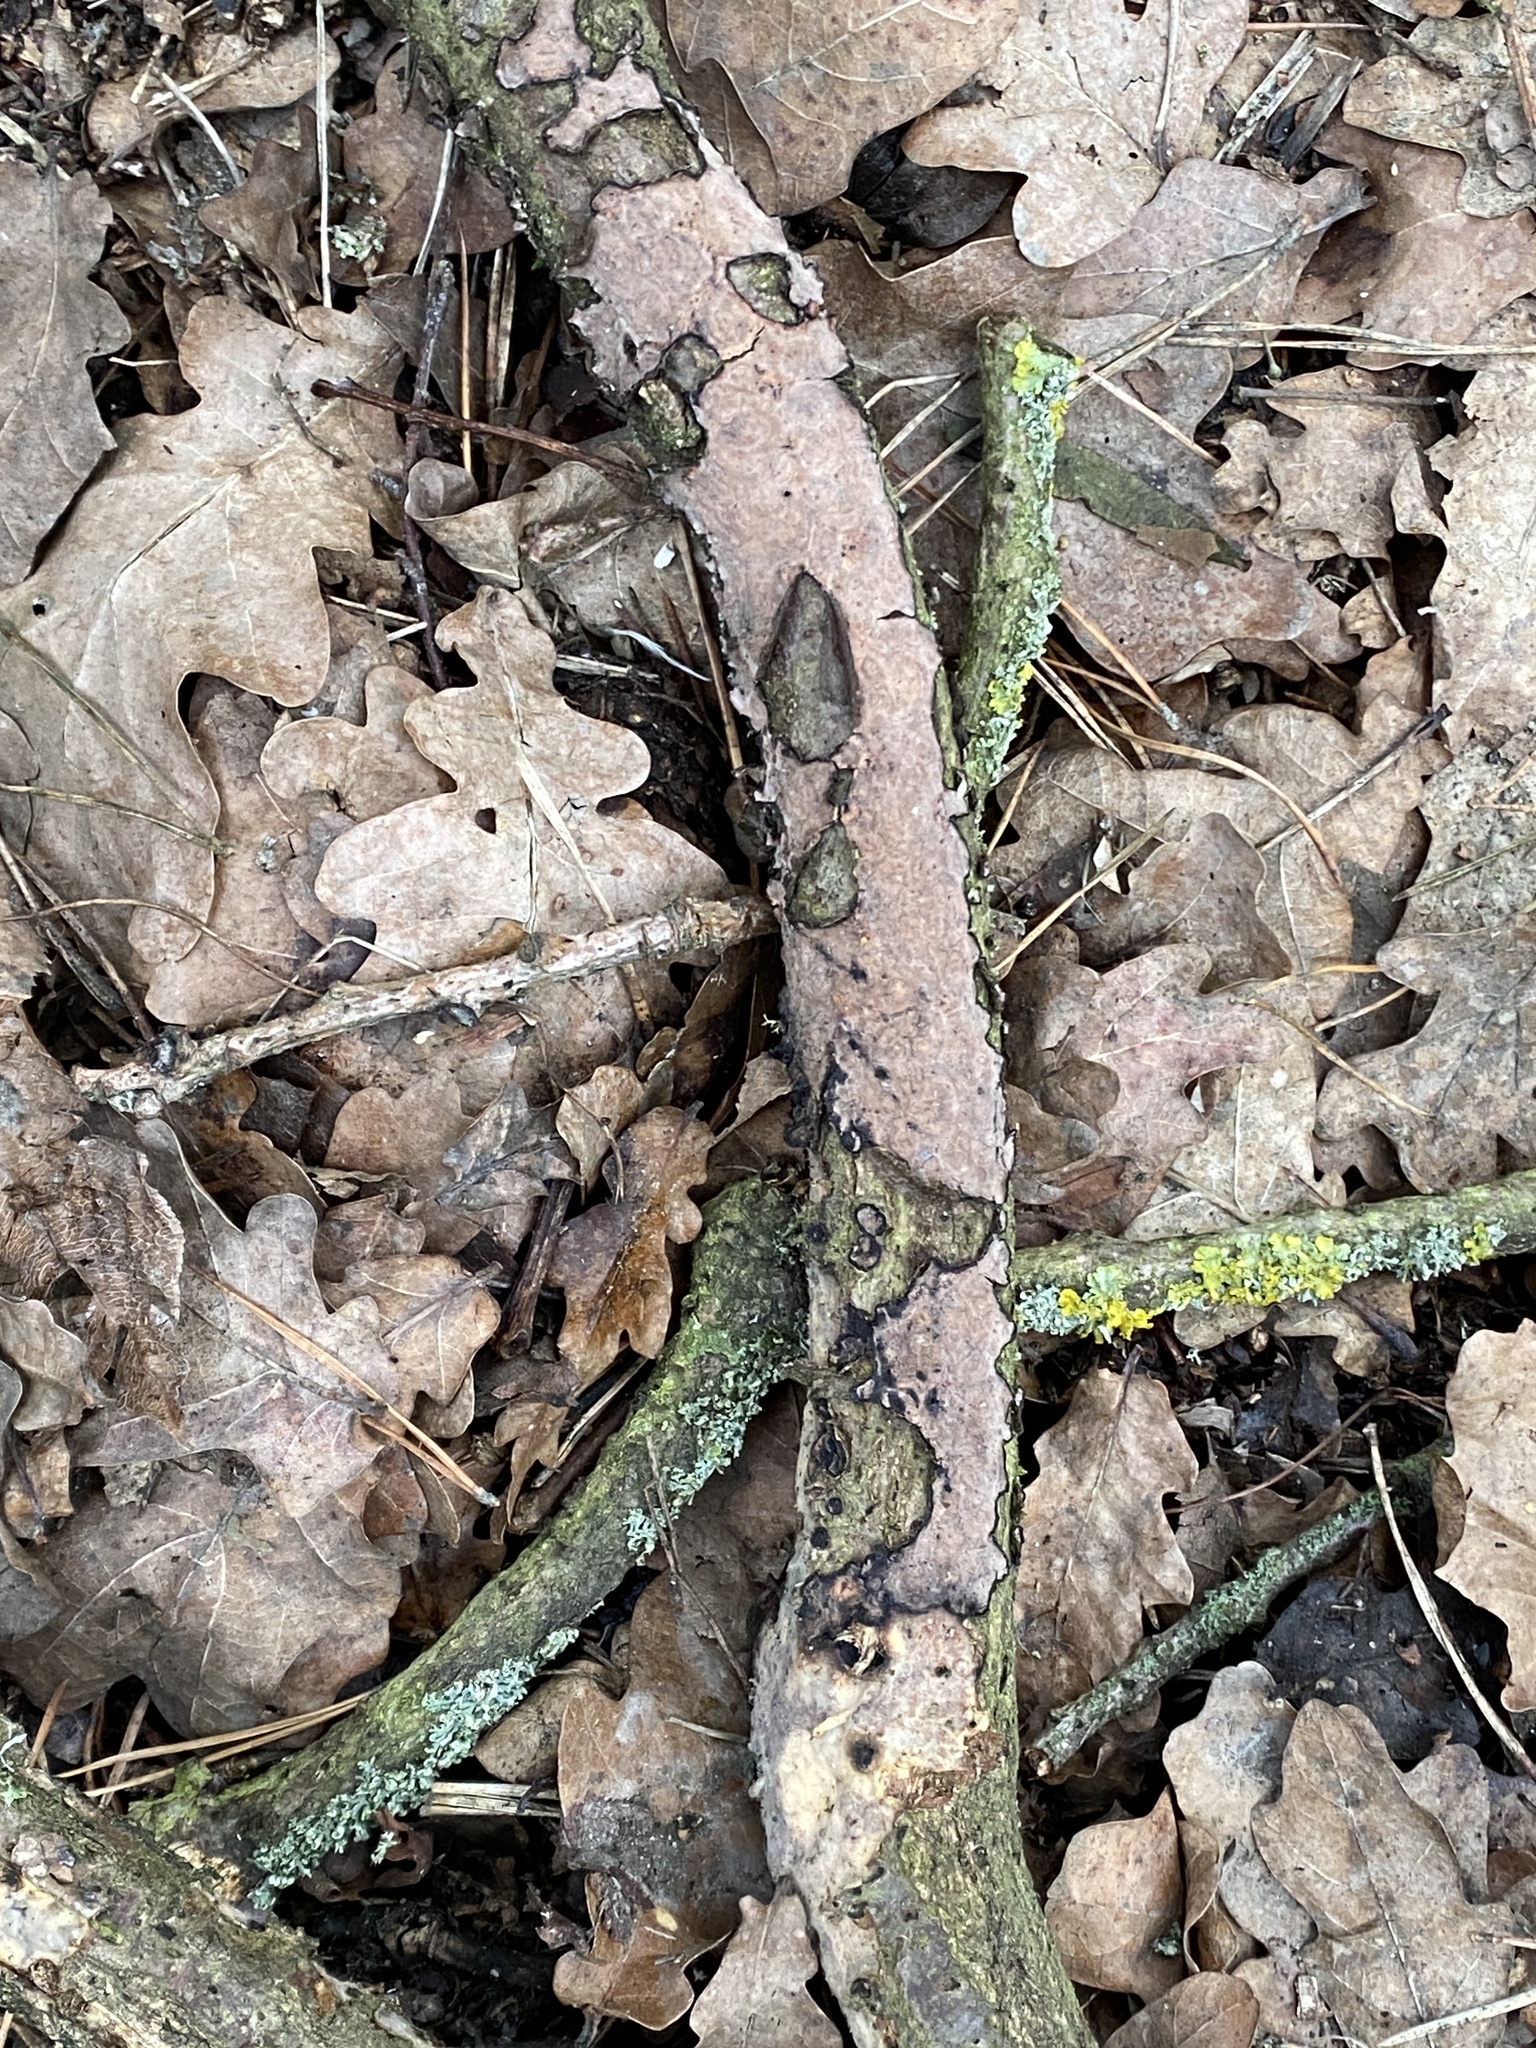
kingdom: Fungi
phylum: Basidiomycota
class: Agaricomycetes
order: Russulales
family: Peniophoraceae
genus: Peniophora
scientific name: Peniophora quercina
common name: Oak crust
